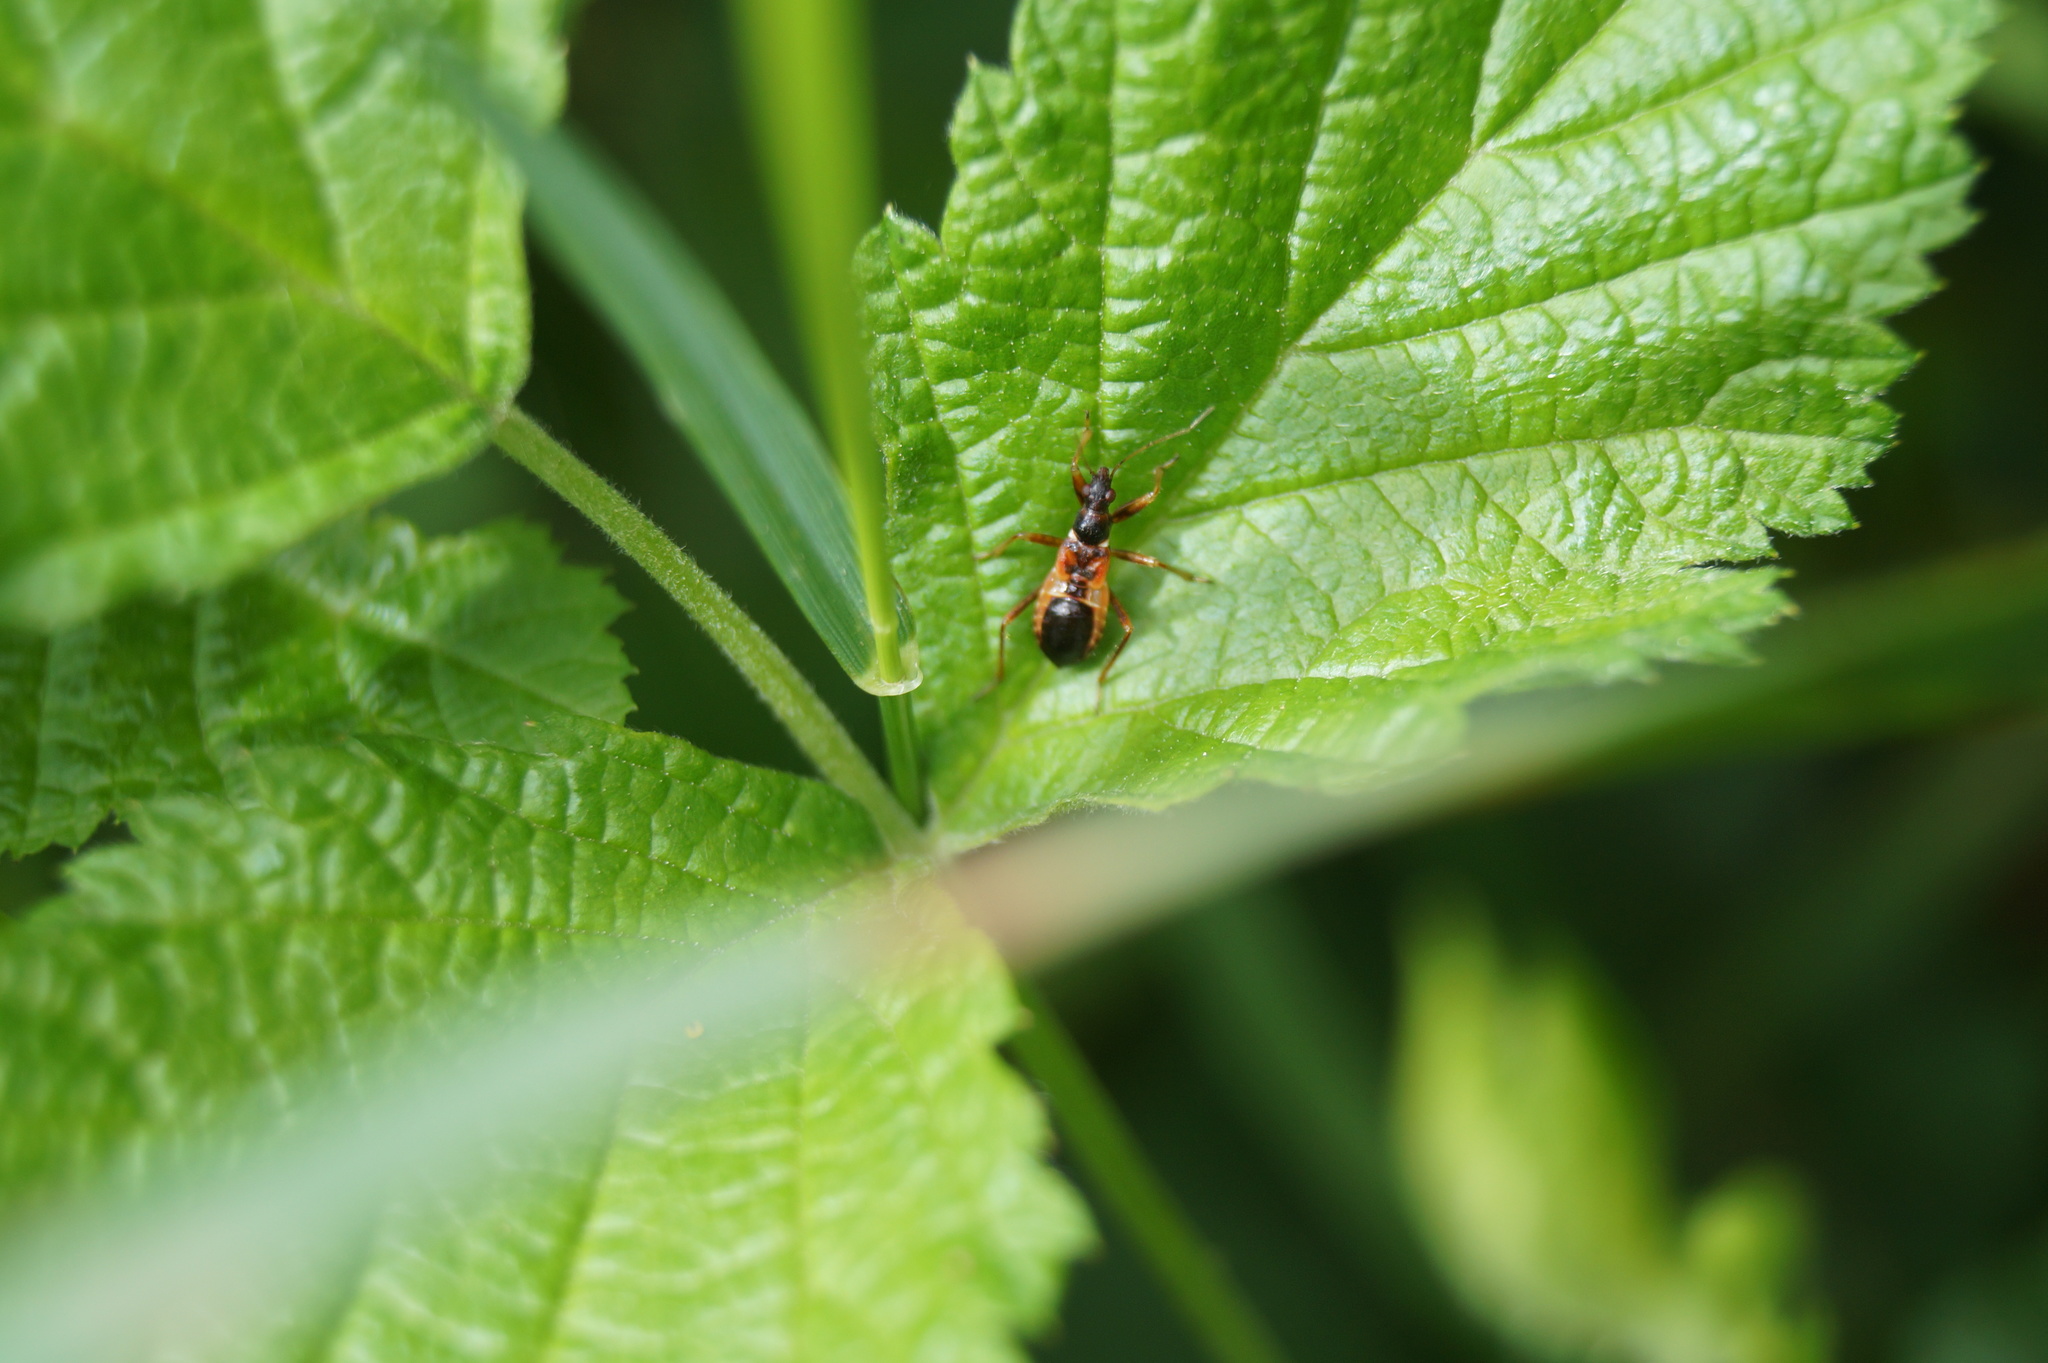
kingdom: Animalia
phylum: Arthropoda
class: Insecta
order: Hemiptera
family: Nabidae
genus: Himacerus
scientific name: Himacerus mirmicoides
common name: Ant damsel bug
